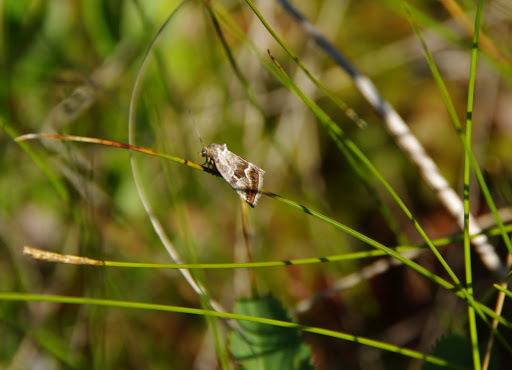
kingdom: Animalia
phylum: Arthropoda
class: Insecta
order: Lepidoptera
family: Noctuidae
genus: Deltote
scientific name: Deltote bellicula
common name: Bog glyph
